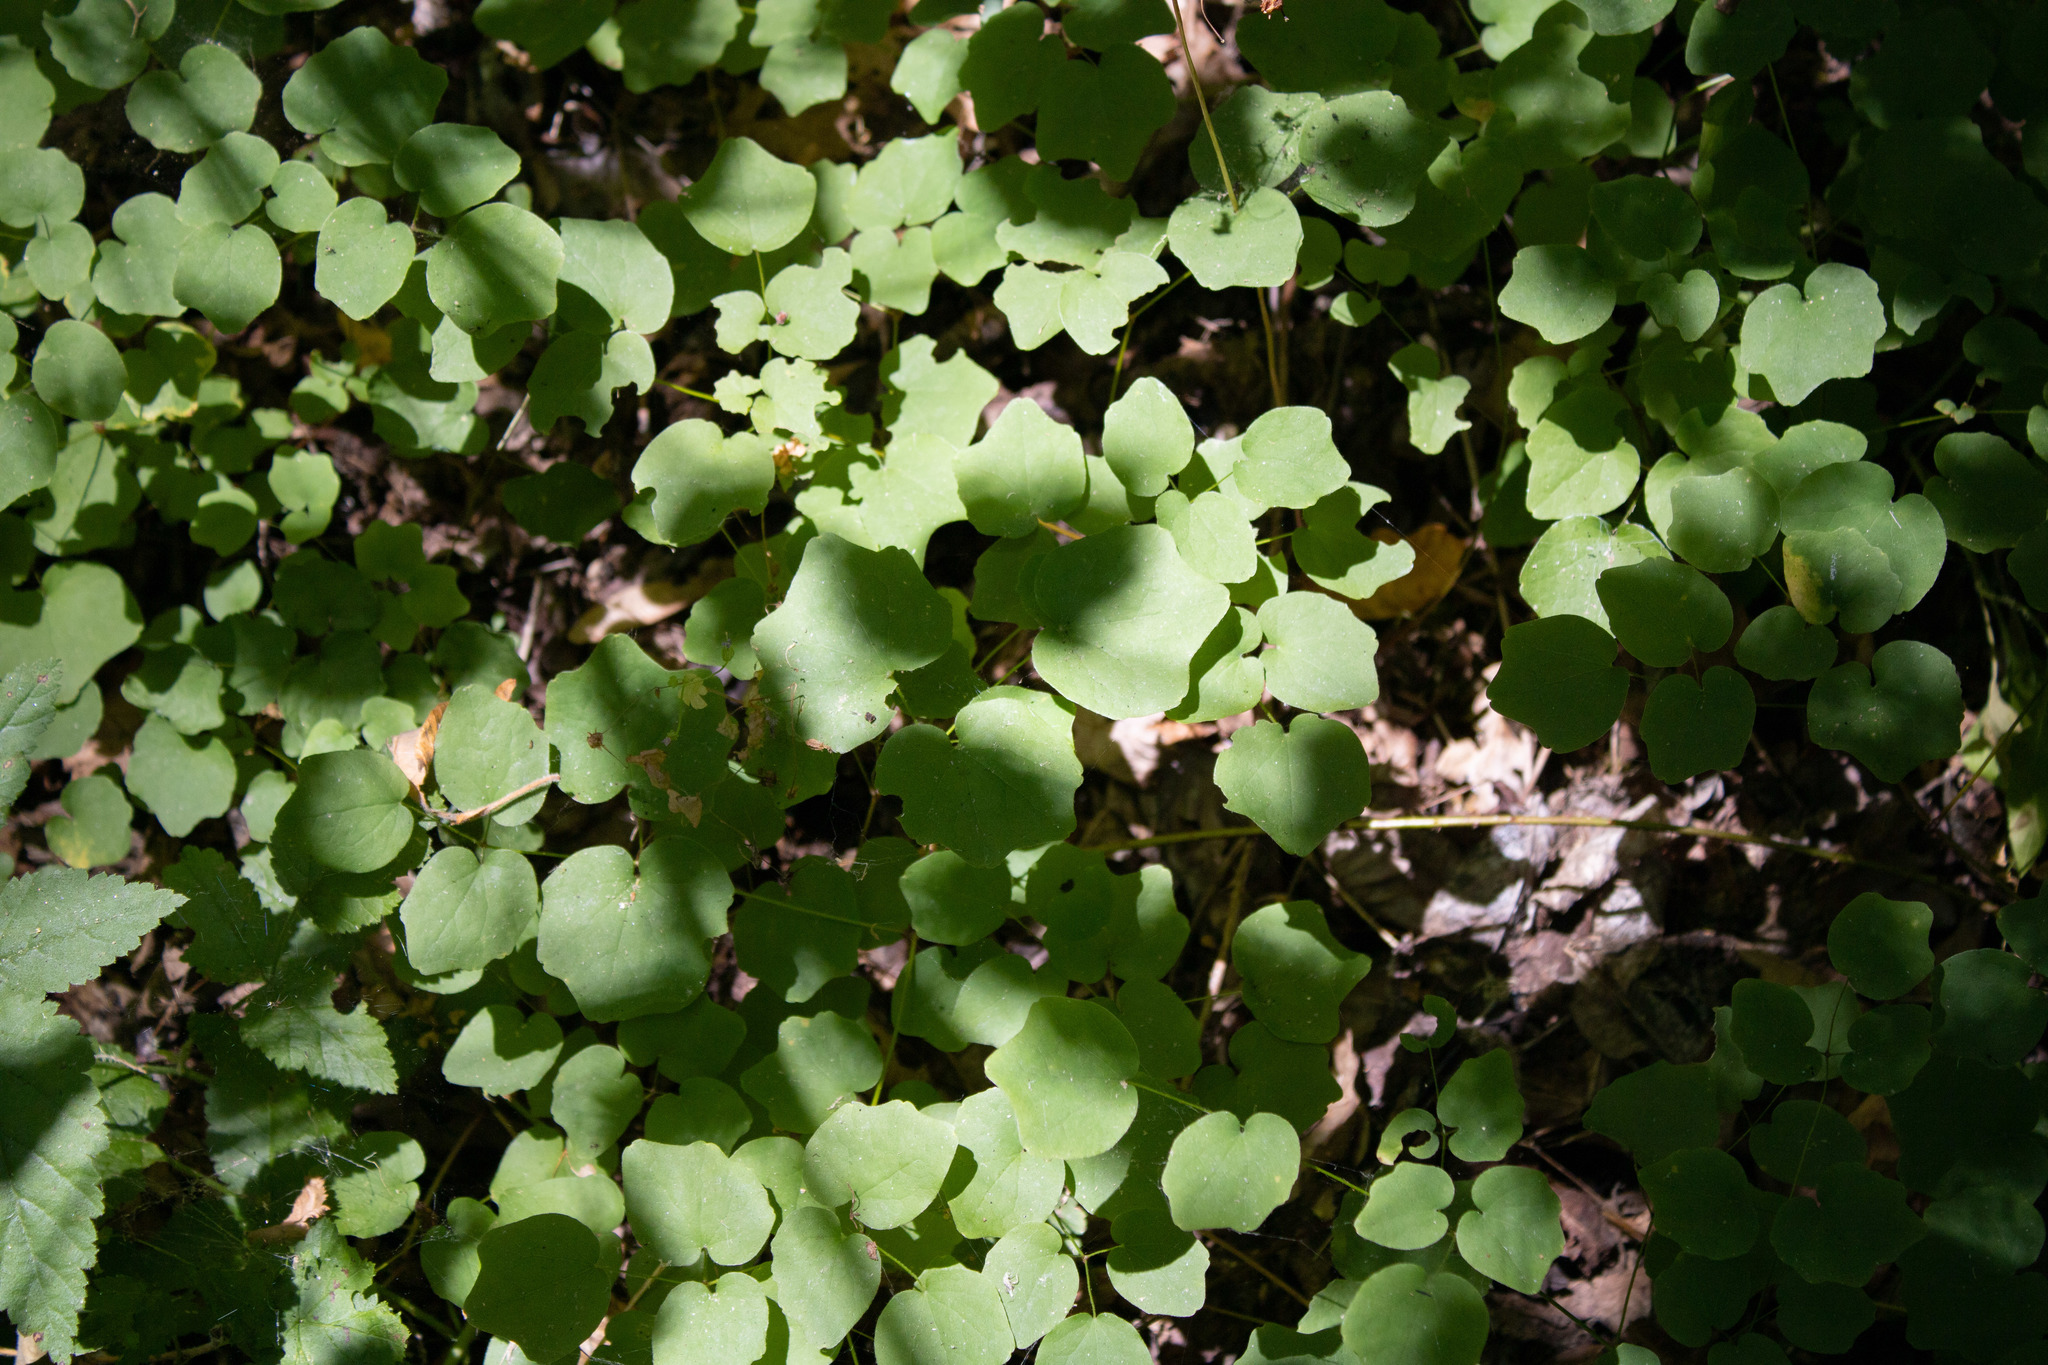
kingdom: Plantae
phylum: Tracheophyta
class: Magnoliopsida
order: Ranunculales
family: Berberidaceae
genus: Vancouveria
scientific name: Vancouveria hexandra
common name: Northern inside-out-flower
